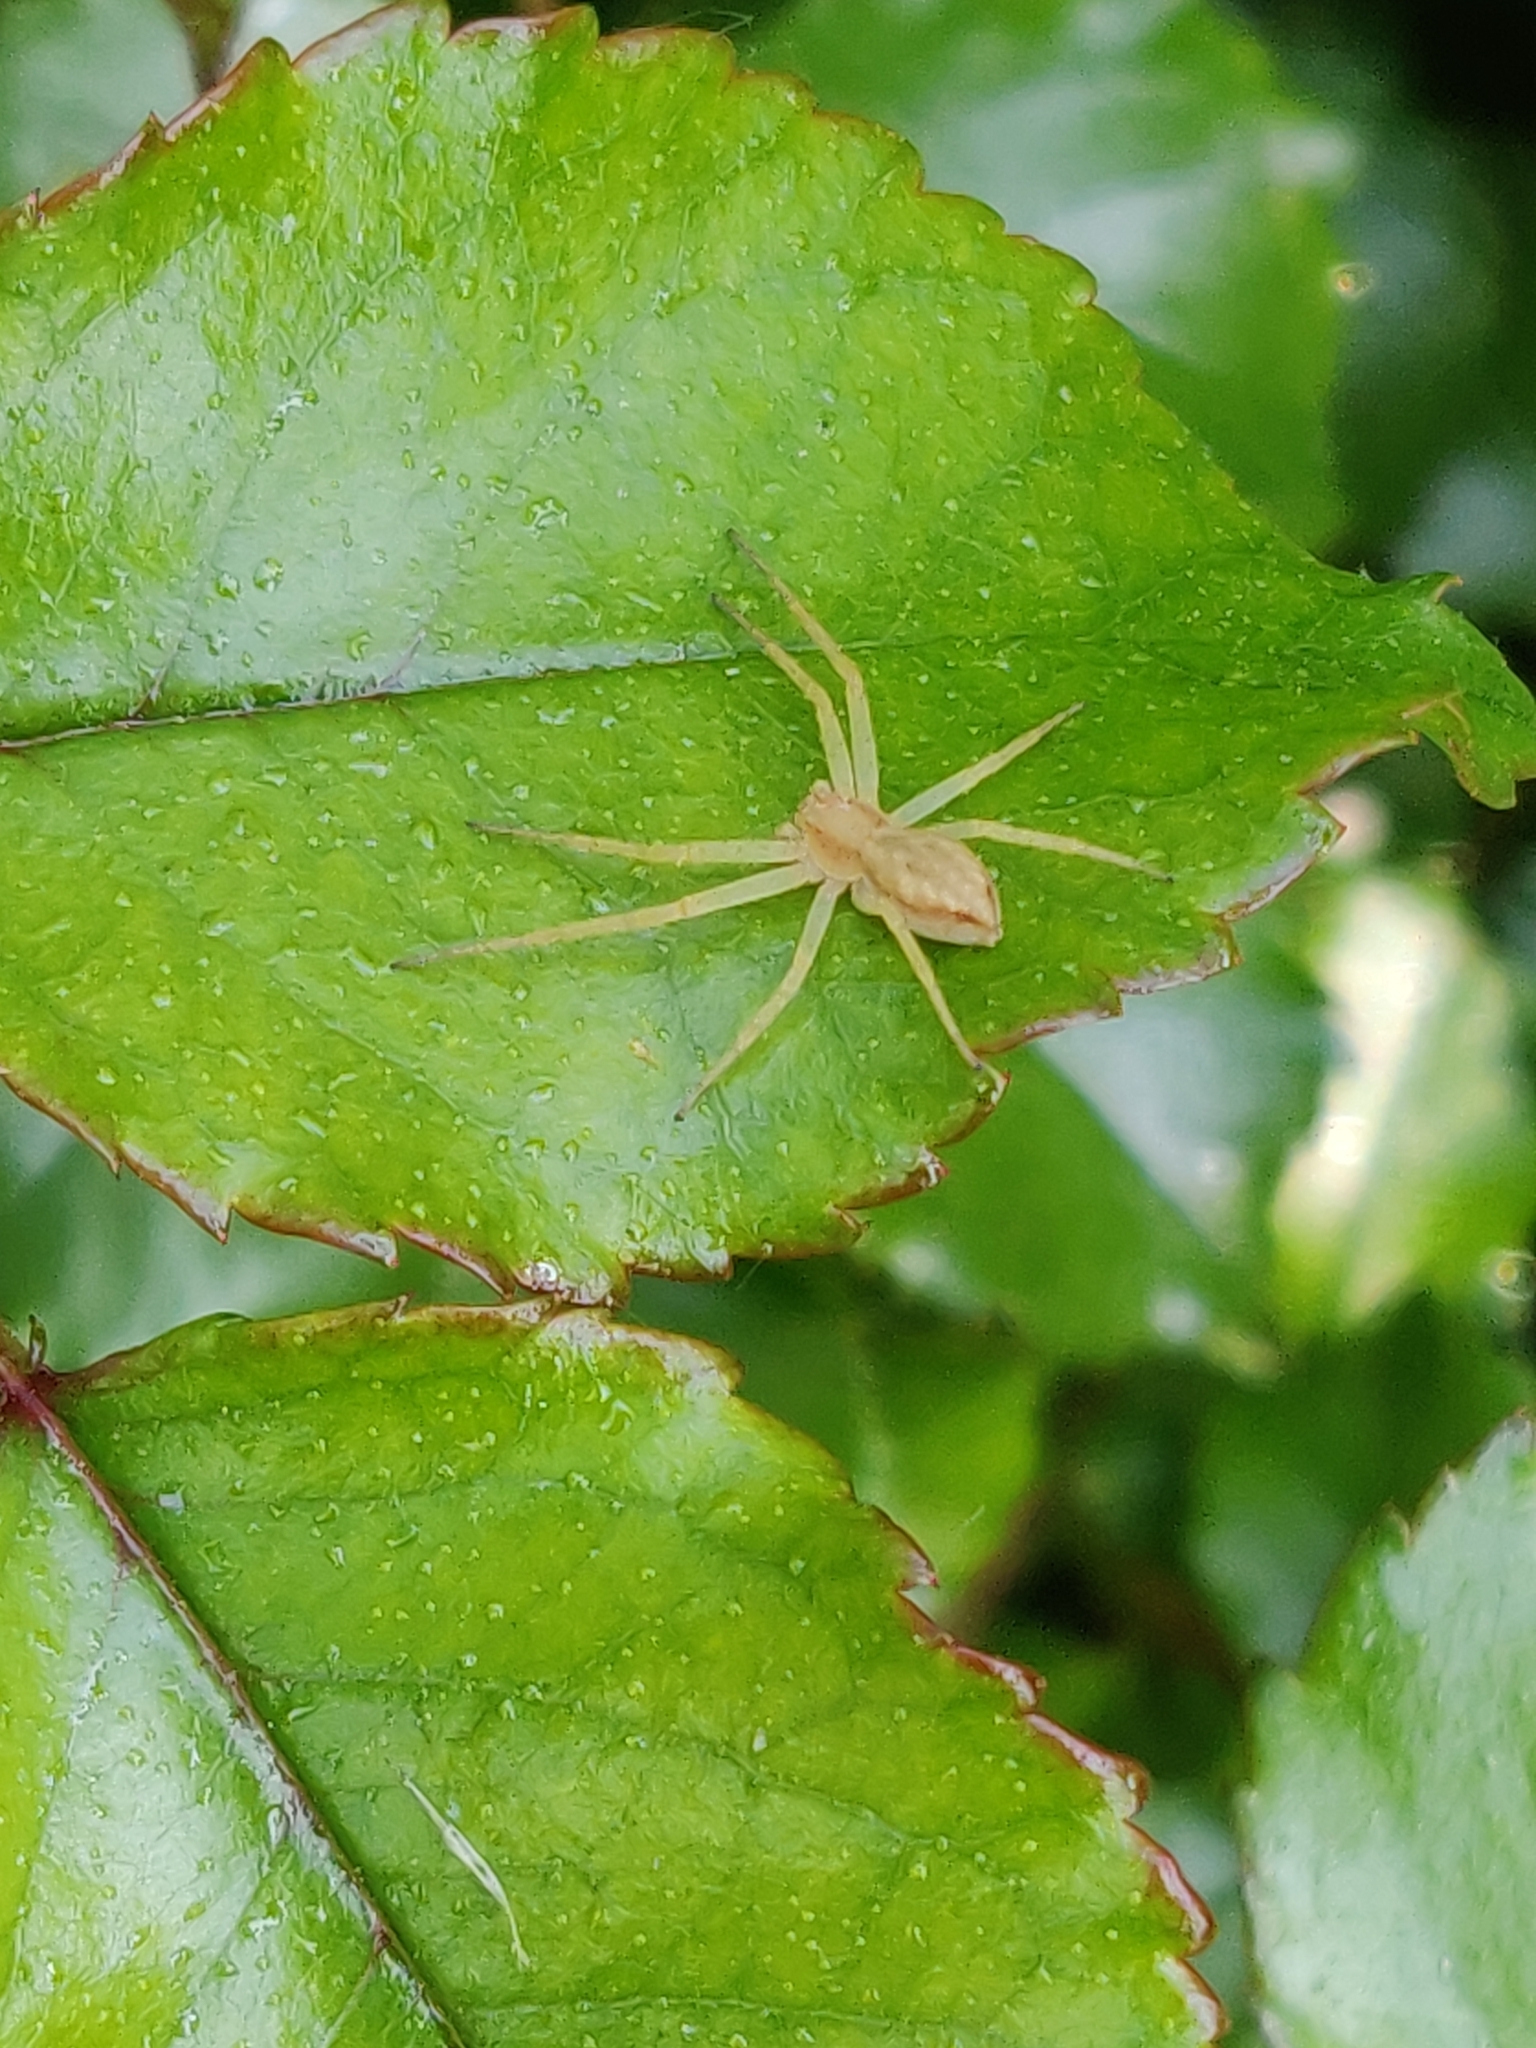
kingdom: Animalia
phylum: Arthropoda
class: Arachnida
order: Araneae
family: Philodromidae
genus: Philodromus
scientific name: Philodromus
